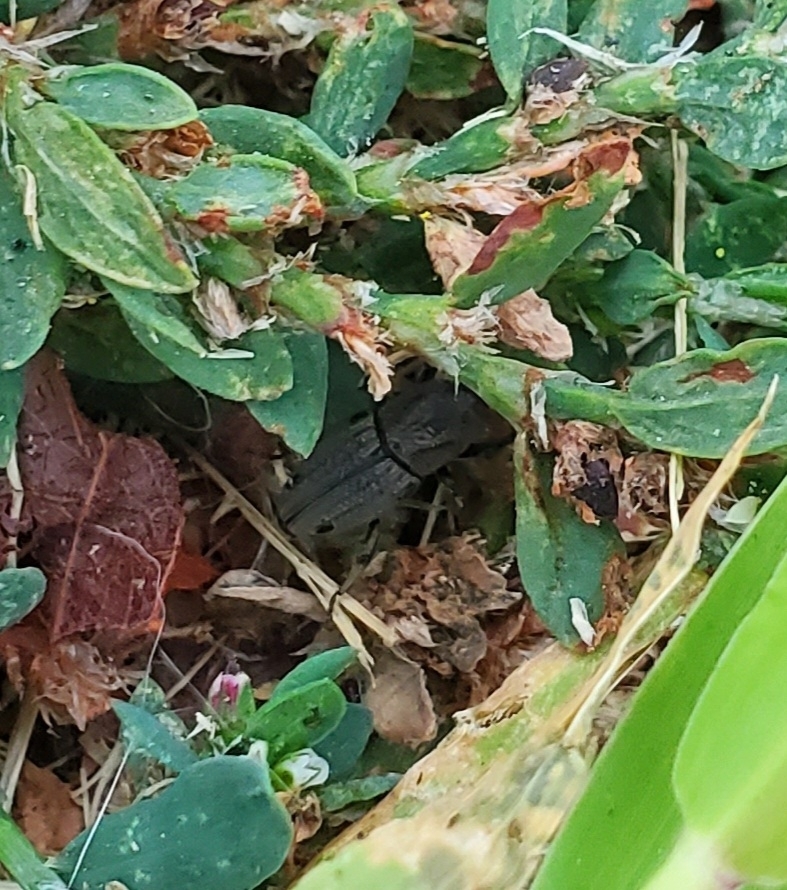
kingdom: Animalia
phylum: Arthropoda
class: Insecta
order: Coleoptera
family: Dryophthoridae
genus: Sphenophorus
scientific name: Sphenophorus venatus
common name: Hunting billbug
